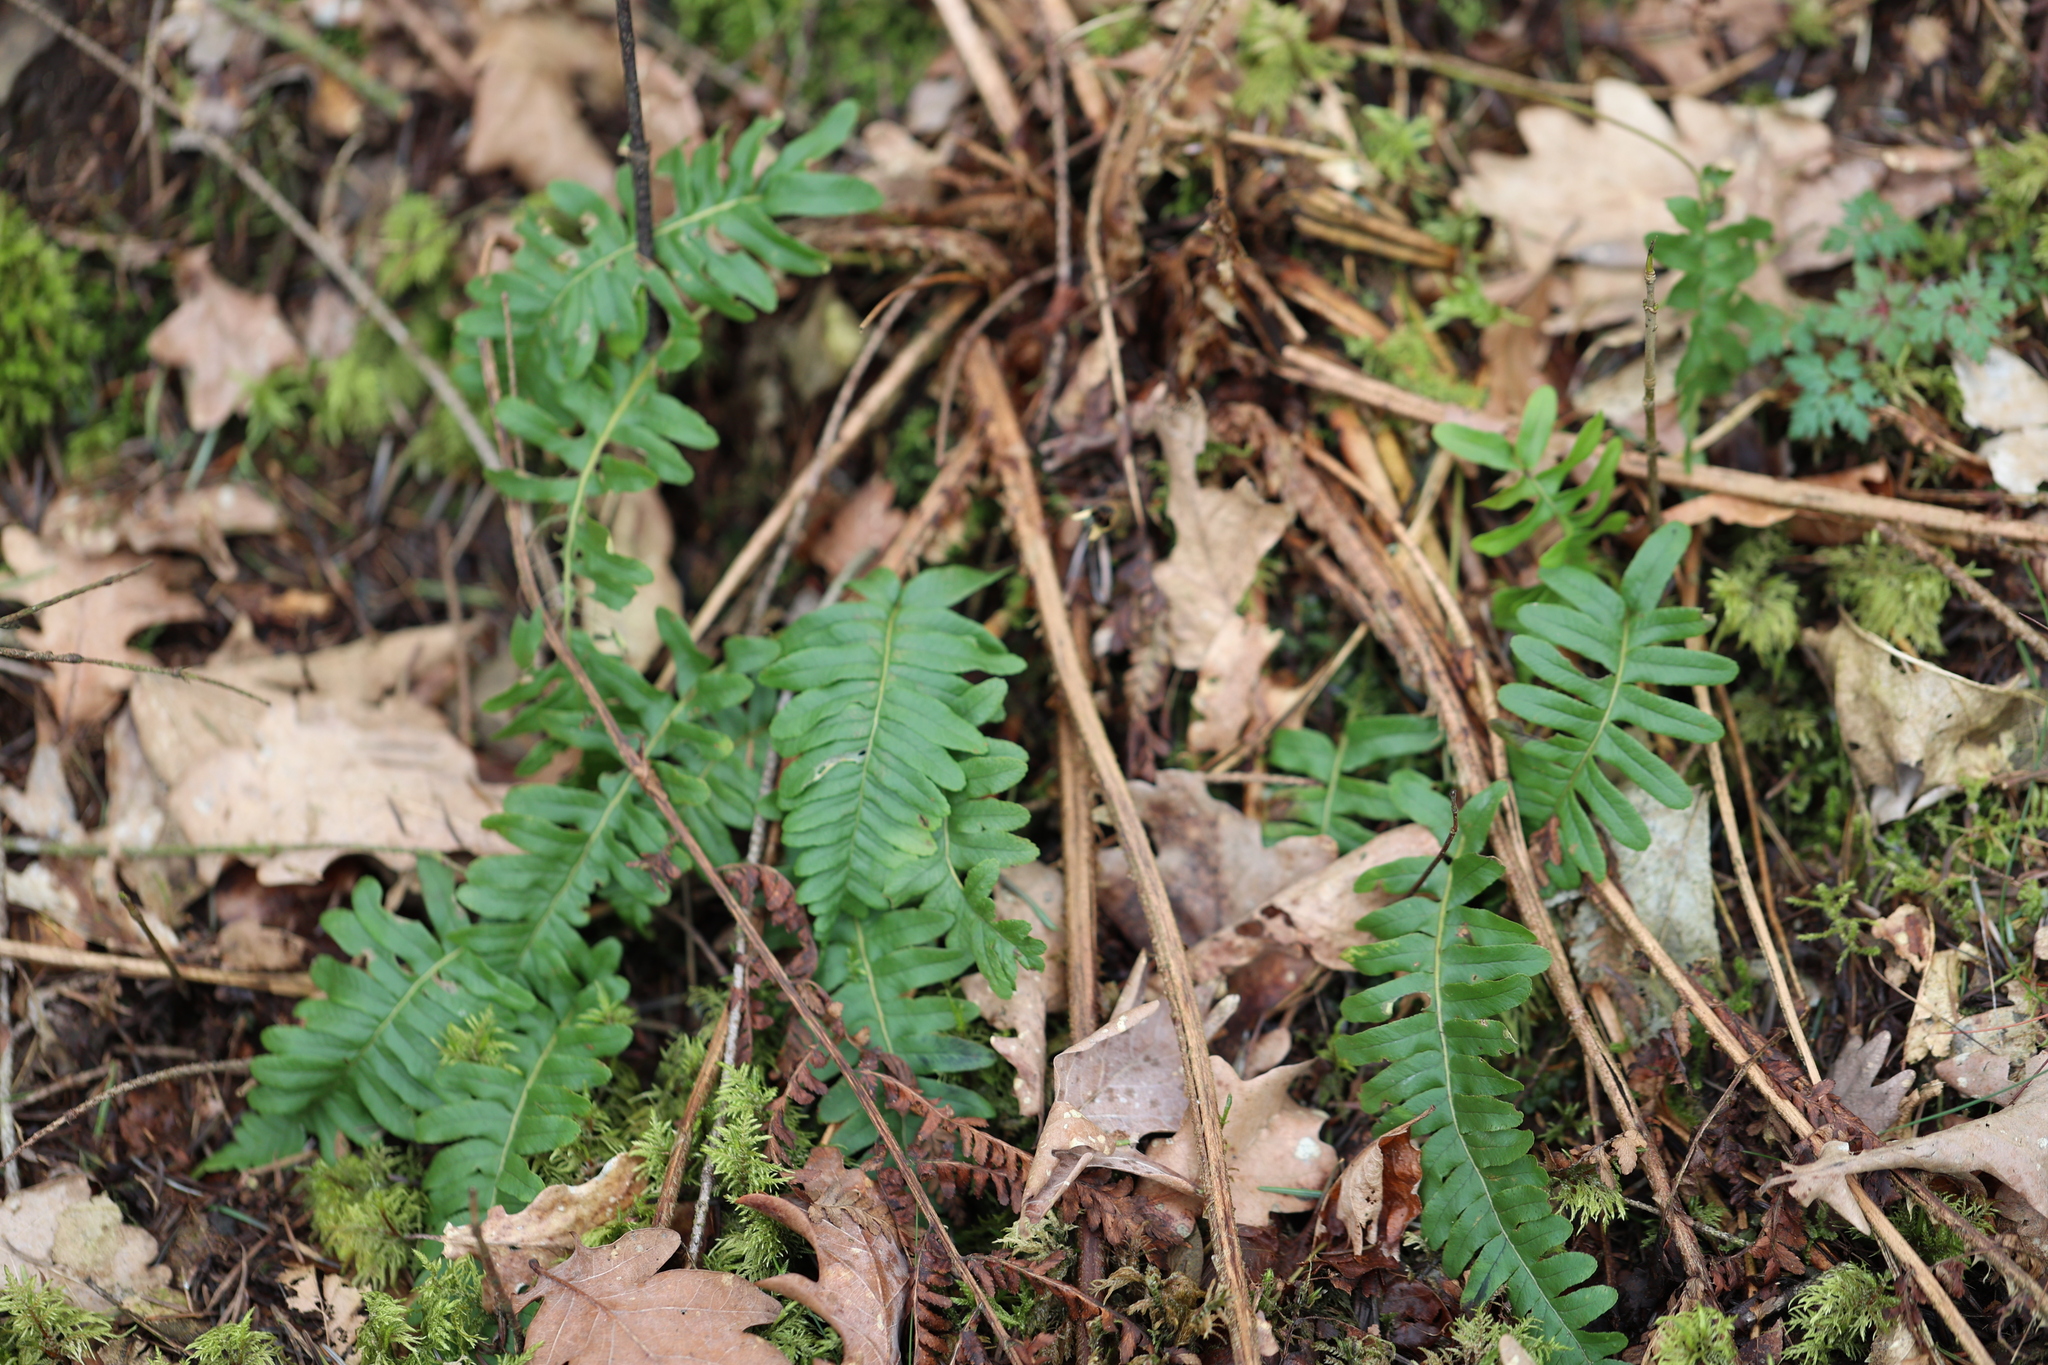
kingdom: Plantae
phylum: Tracheophyta
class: Polypodiopsida
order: Polypodiales
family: Polypodiaceae
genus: Polypodium
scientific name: Polypodium vulgare
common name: Common polypody
